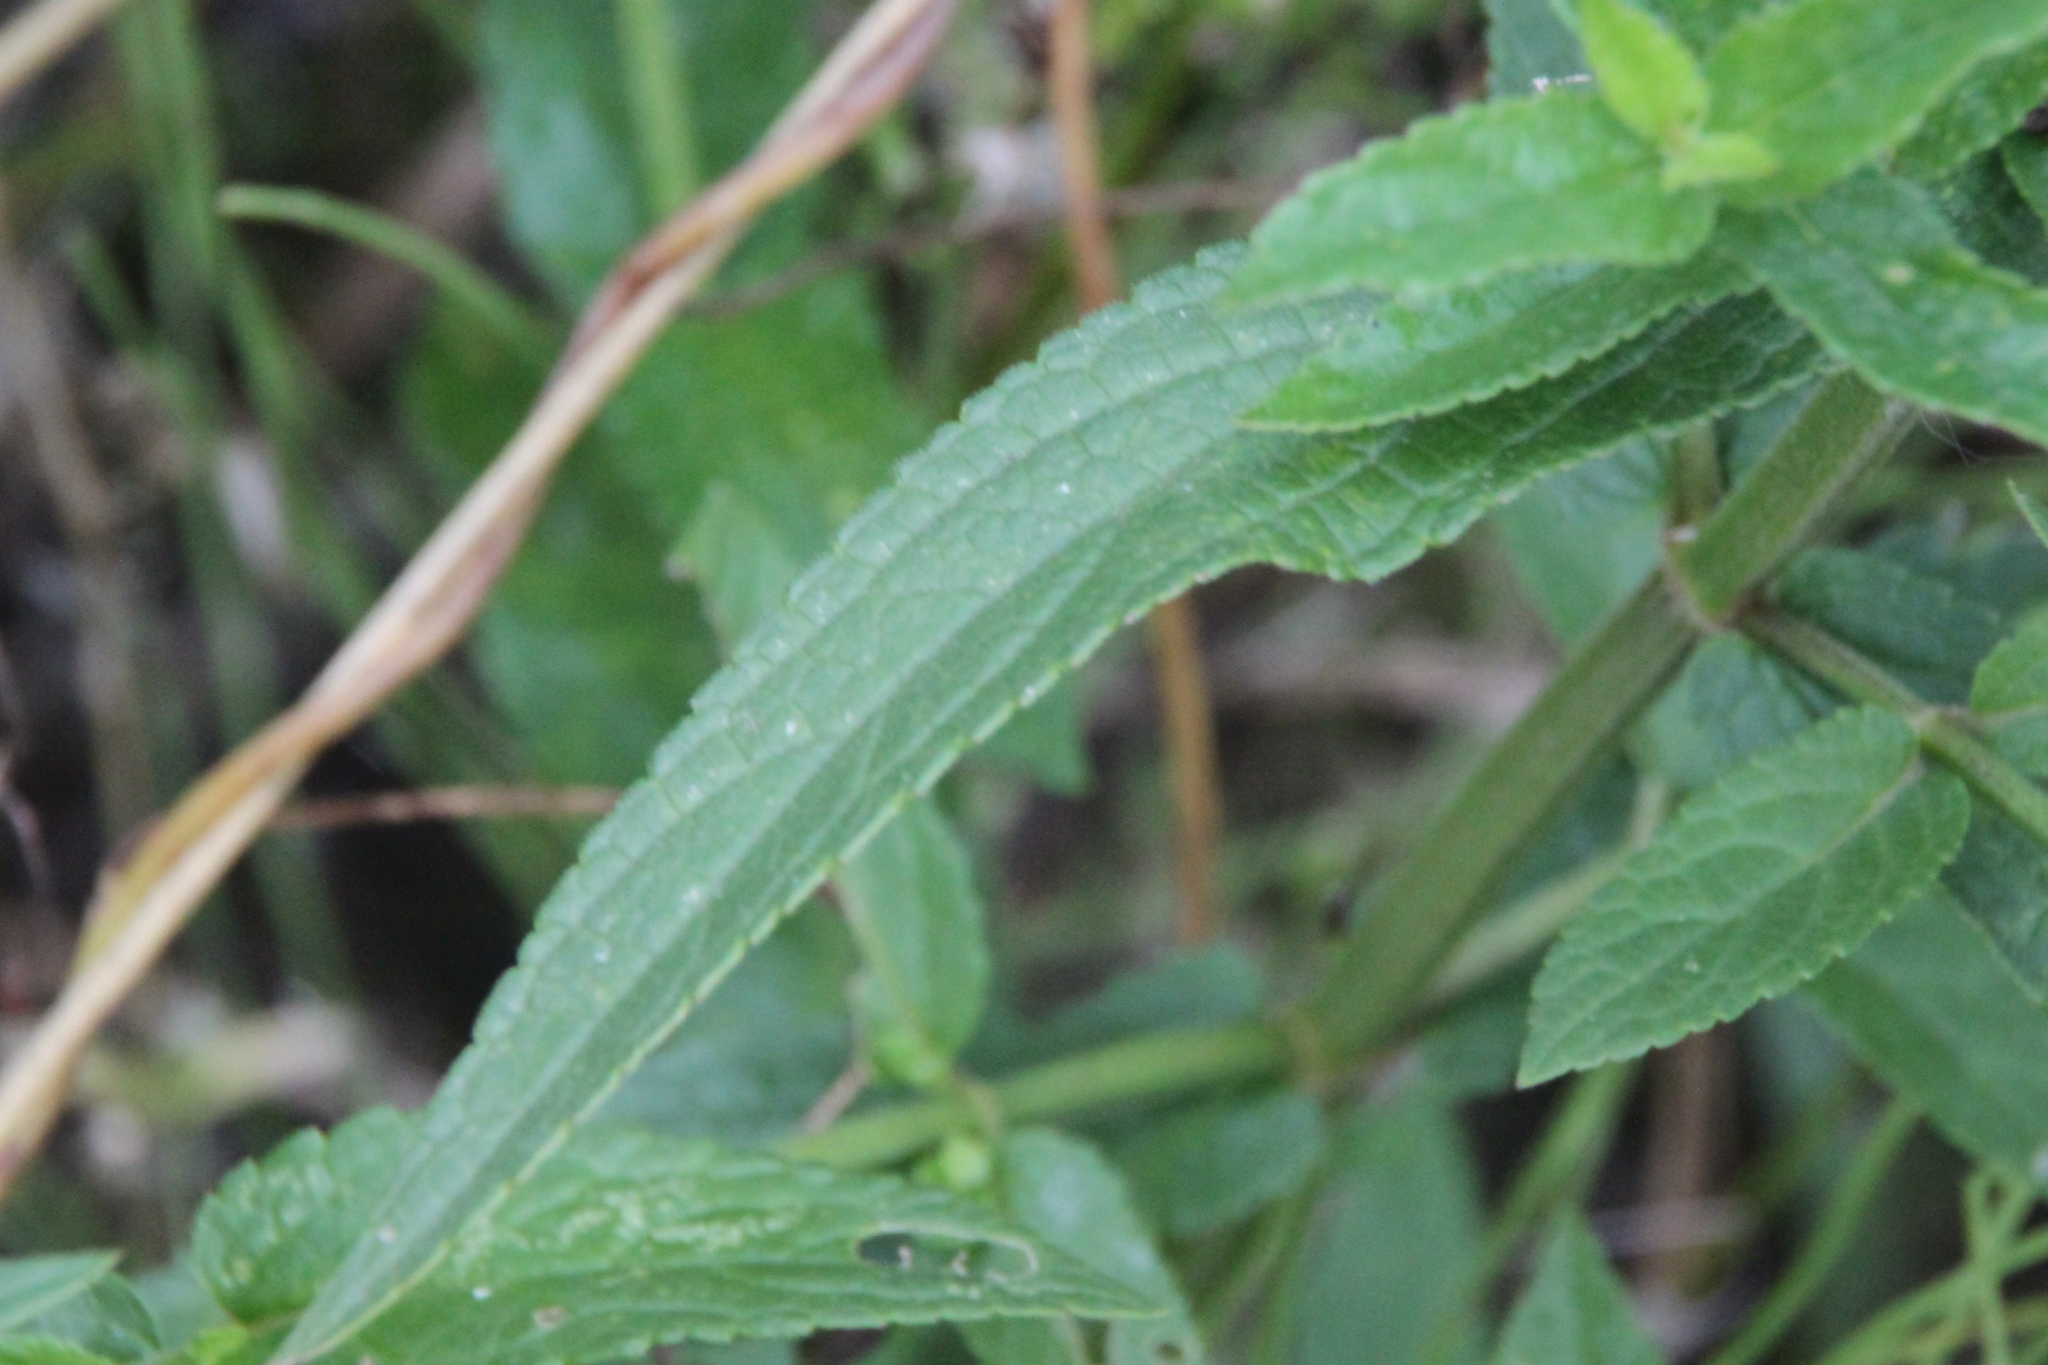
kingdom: Plantae
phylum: Tracheophyta
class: Magnoliopsida
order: Lamiales
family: Lamiaceae
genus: Stachys
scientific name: Stachys palustris
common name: Marsh woundwort
